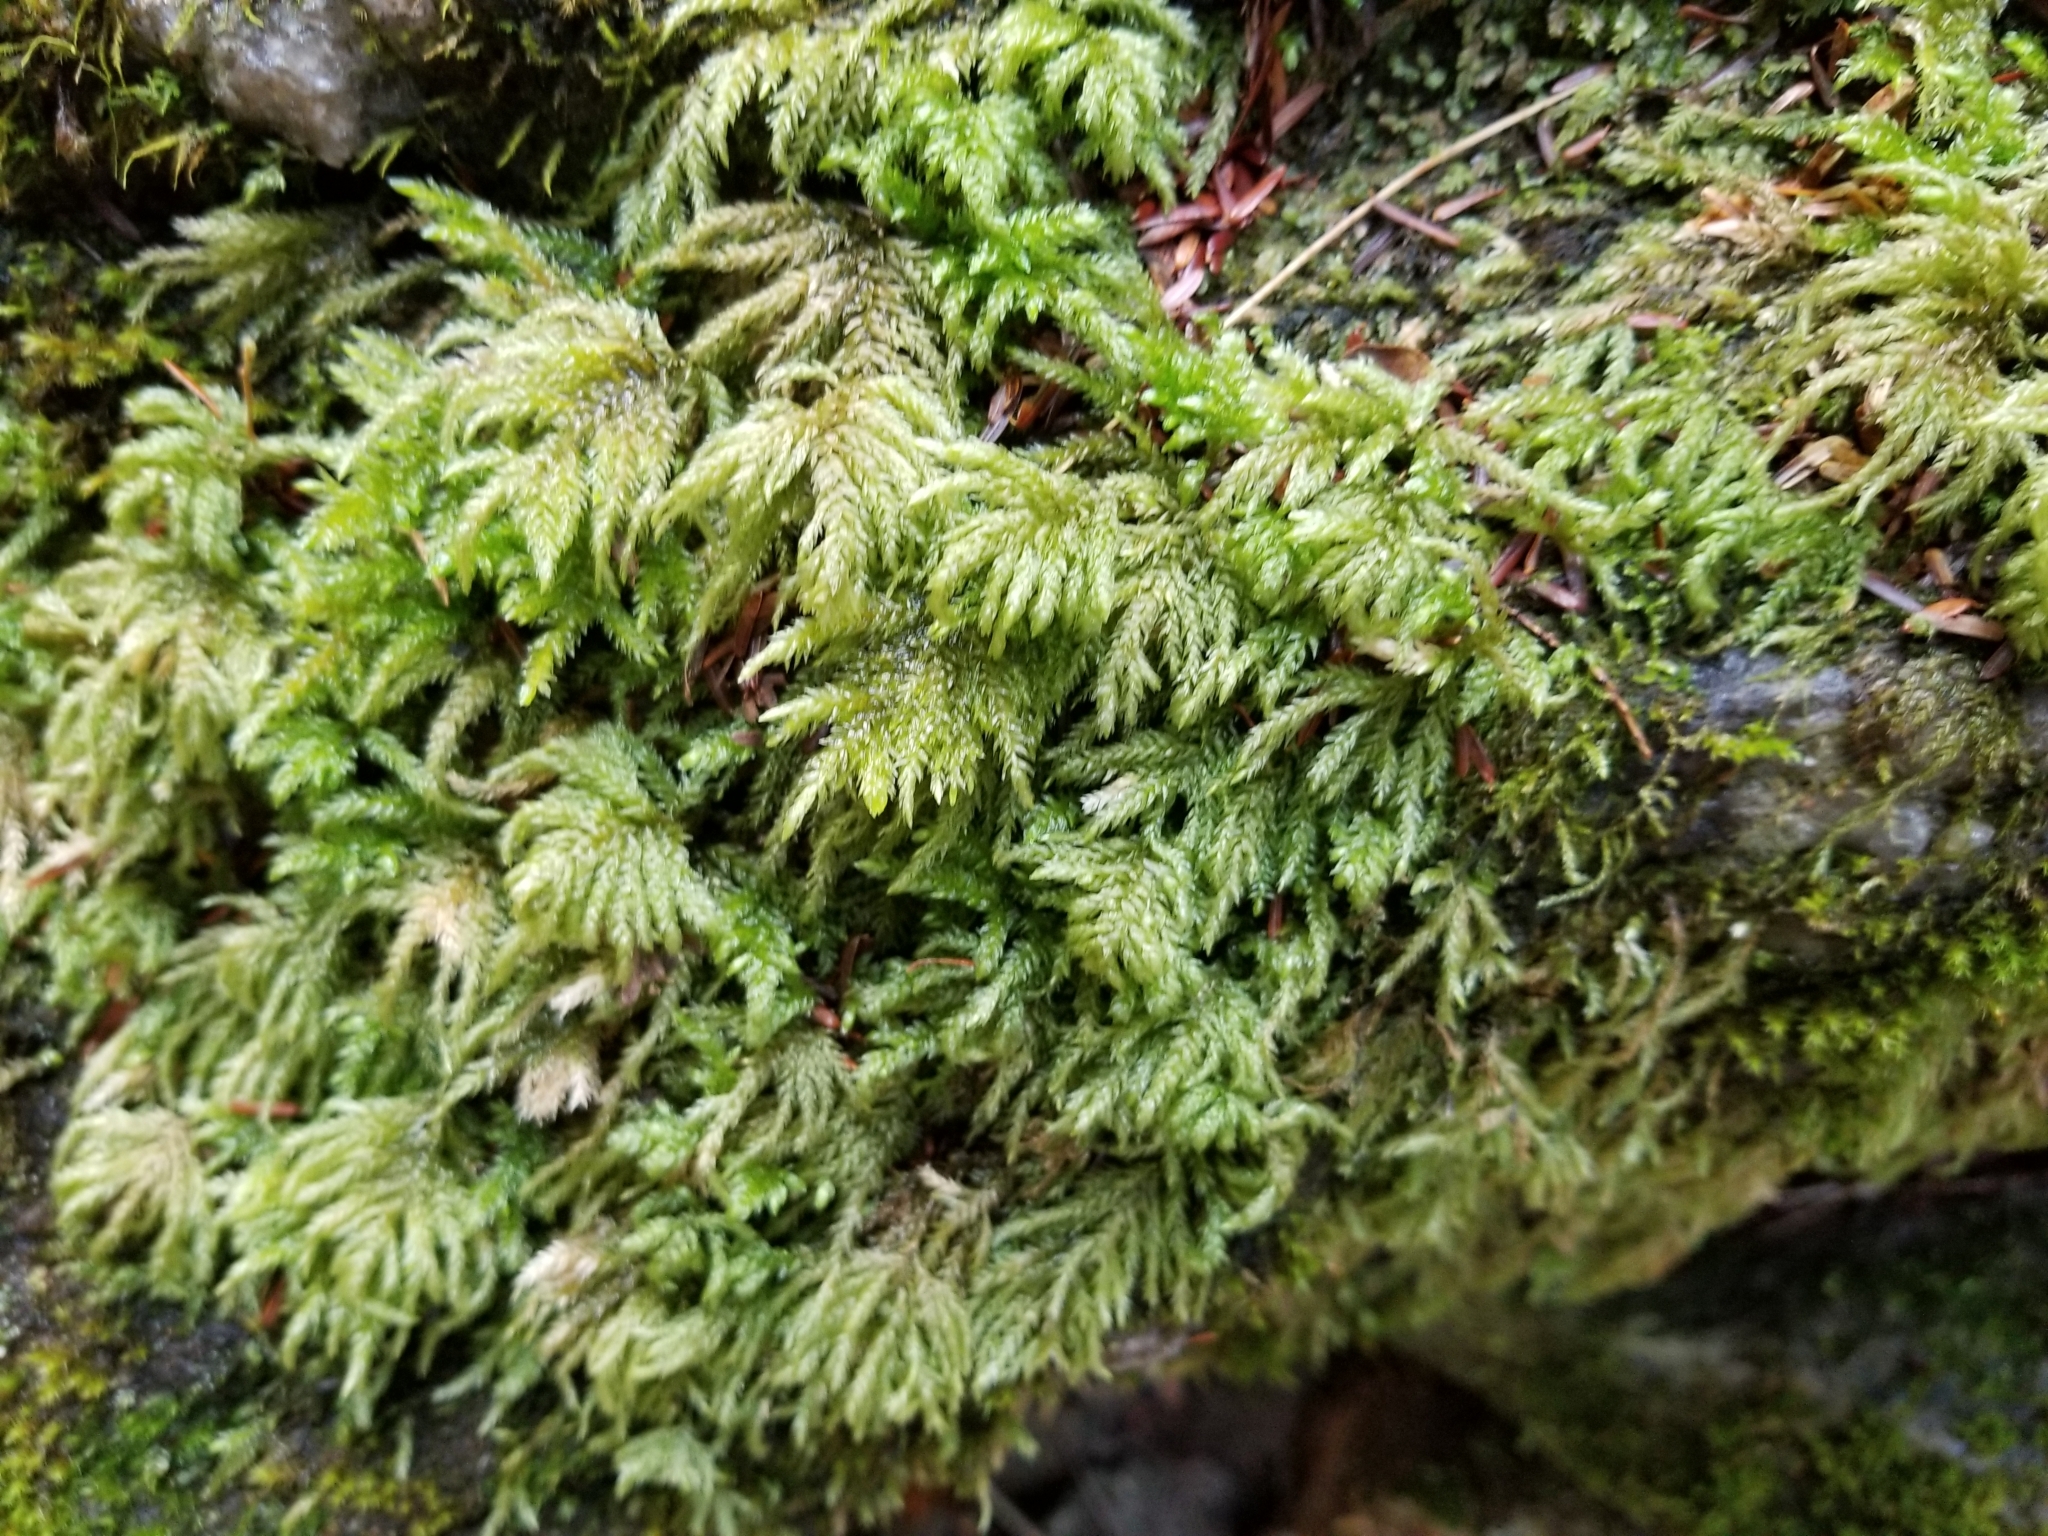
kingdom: Plantae
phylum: Bryophyta
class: Bryopsida
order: Hypnales
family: Neckeraceae
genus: Thamnobryum
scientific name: Thamnobryum subserratum
